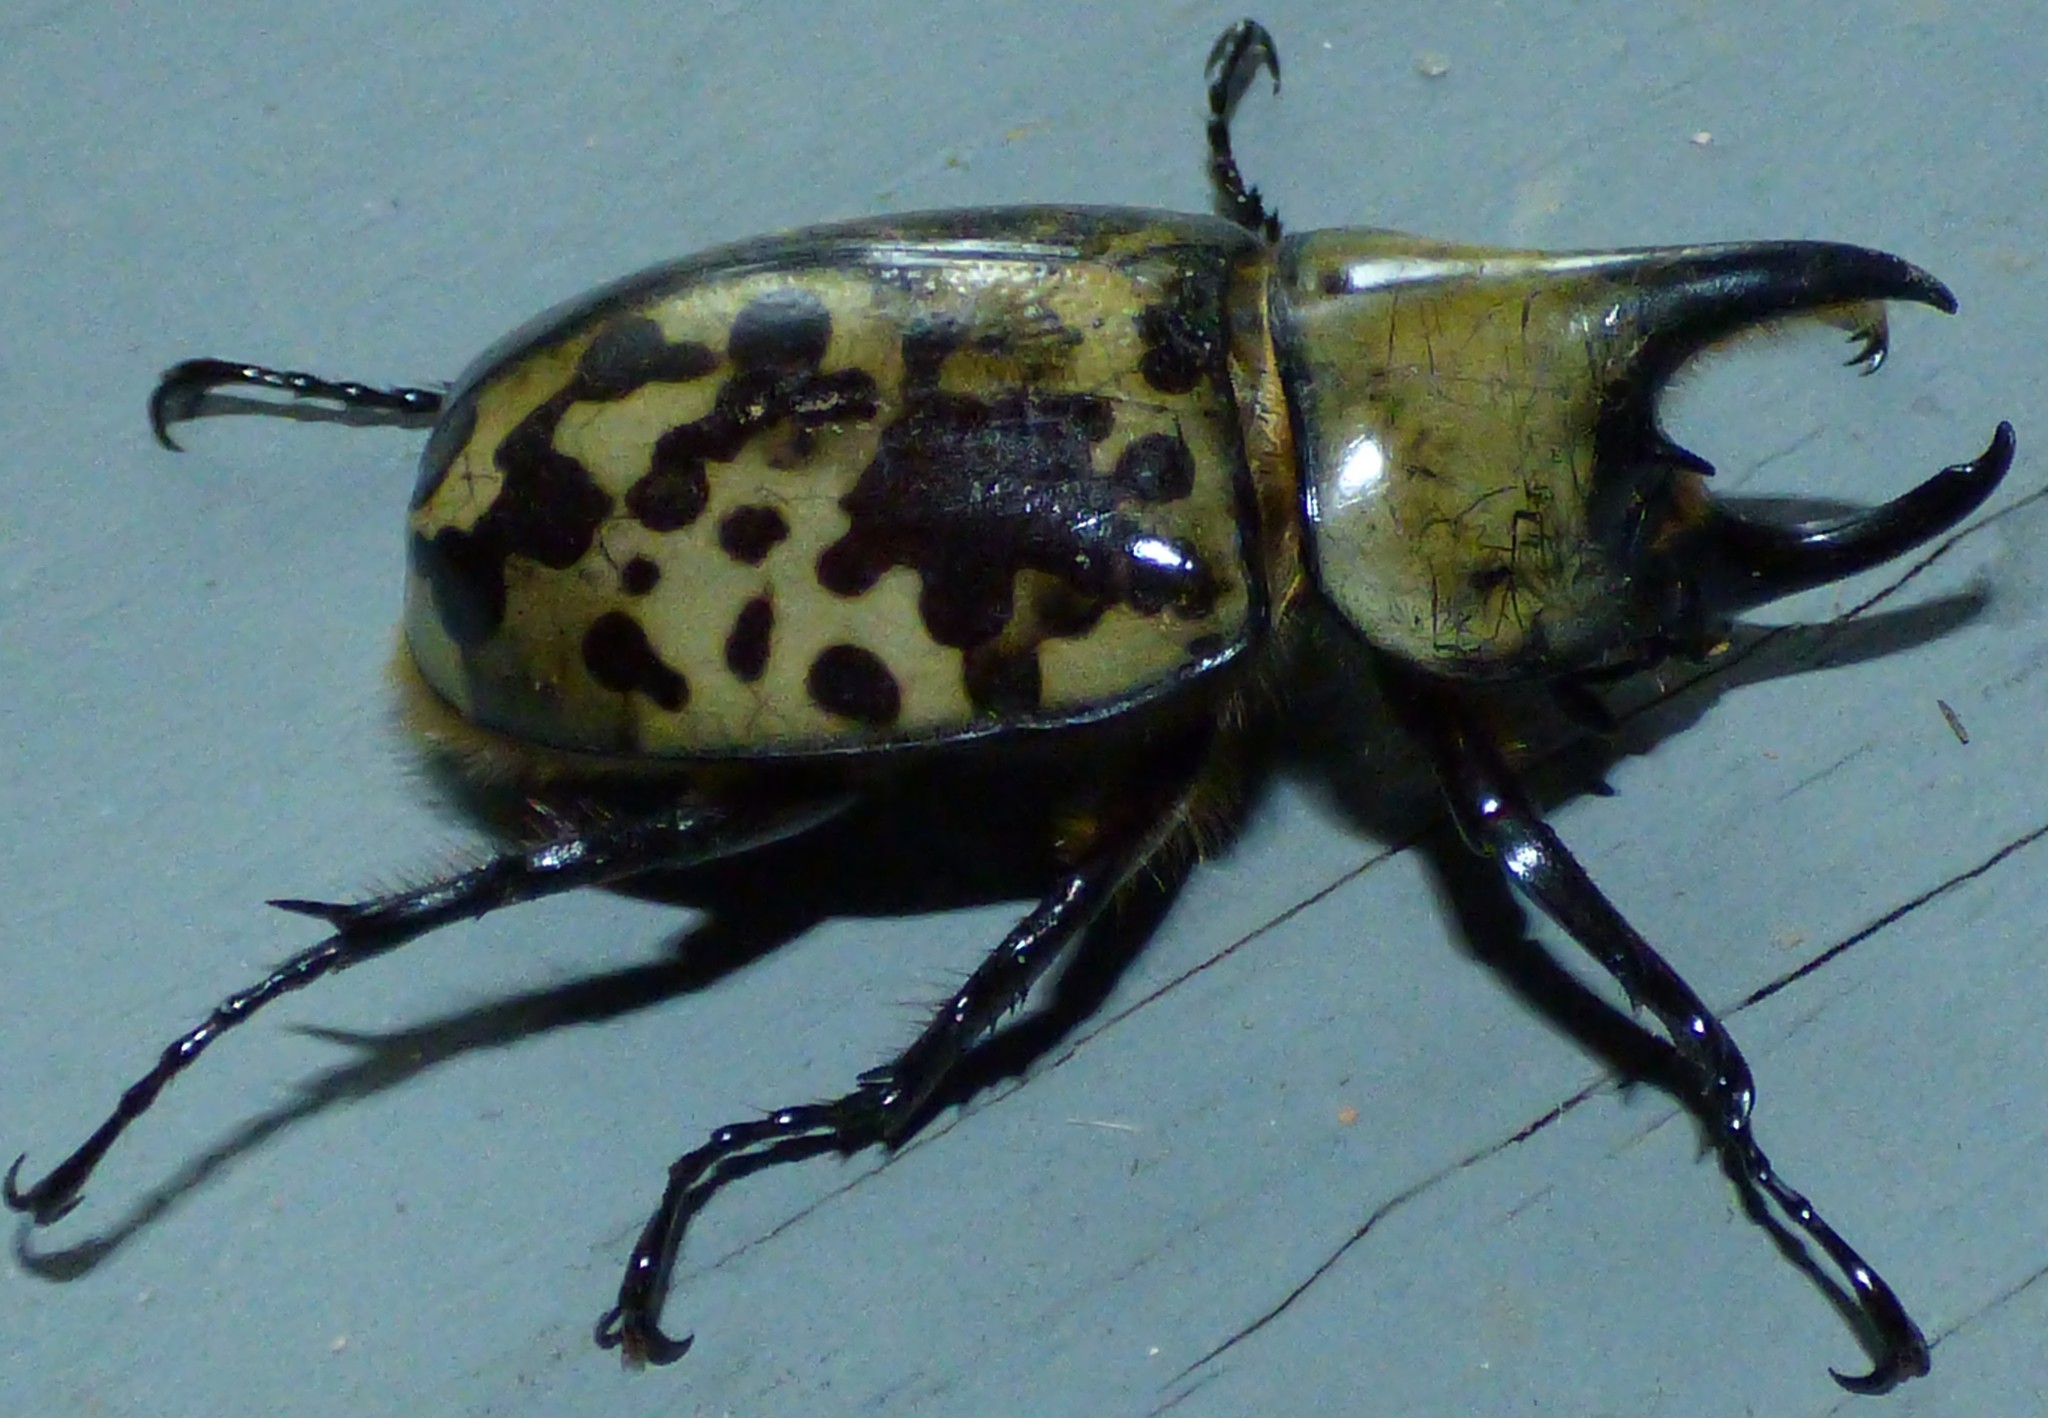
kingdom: Animalia
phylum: Arthropoda
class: Insecta
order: Coleoptera
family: Scarabaeidae
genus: Dynastes
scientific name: Dynastes tityus
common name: Eastern hercules beetle
